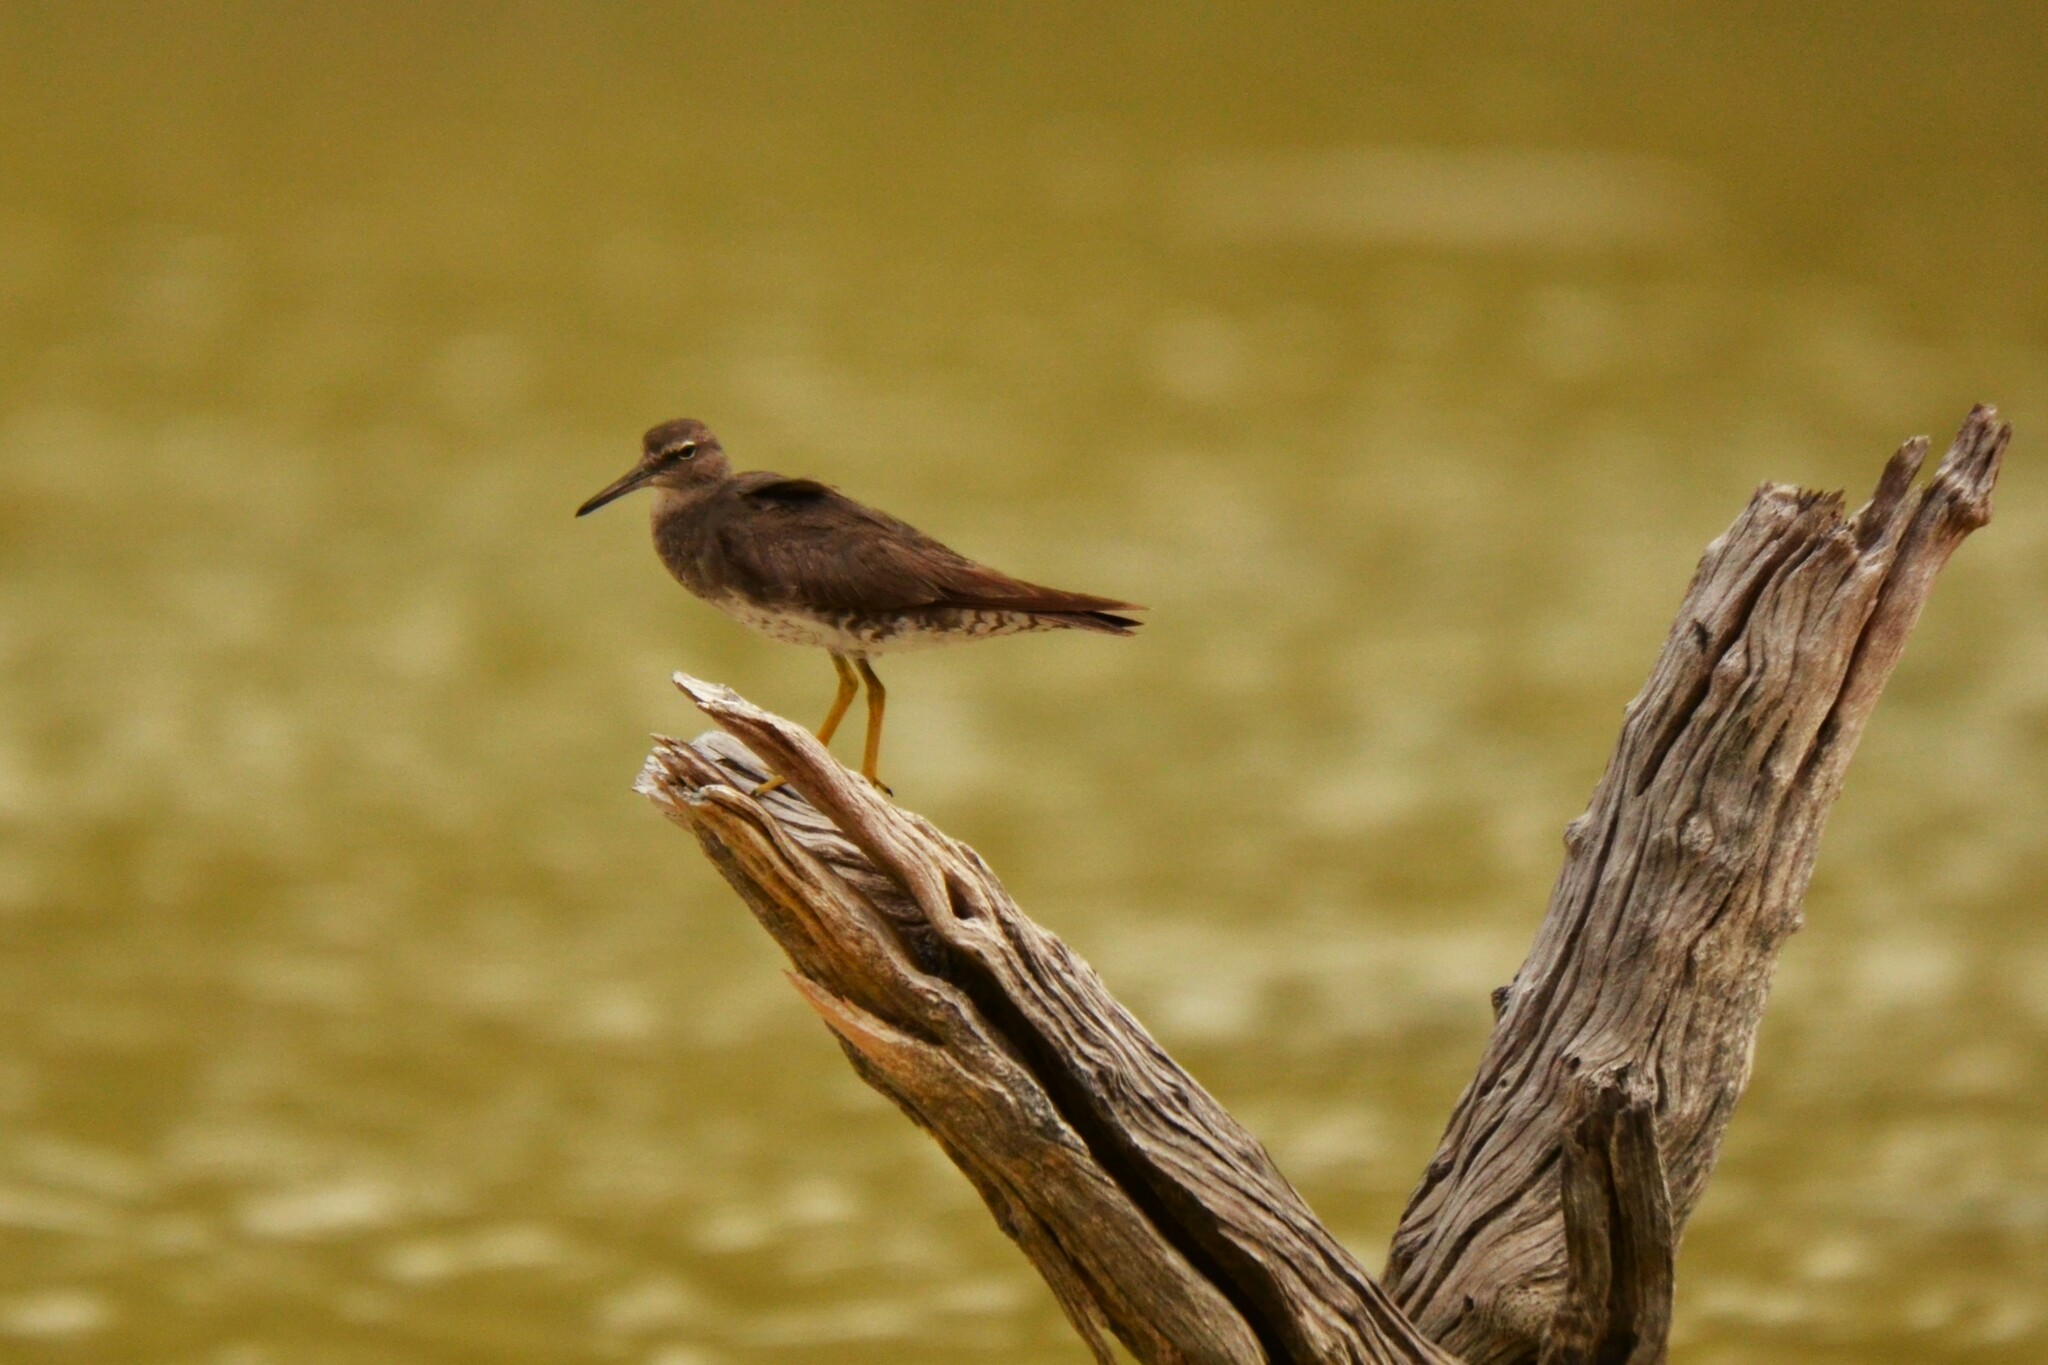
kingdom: Animalia
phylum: Chordata
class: Aves
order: Charadriiformes
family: Scolopacidae
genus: Tringa
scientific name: Tringa incana
